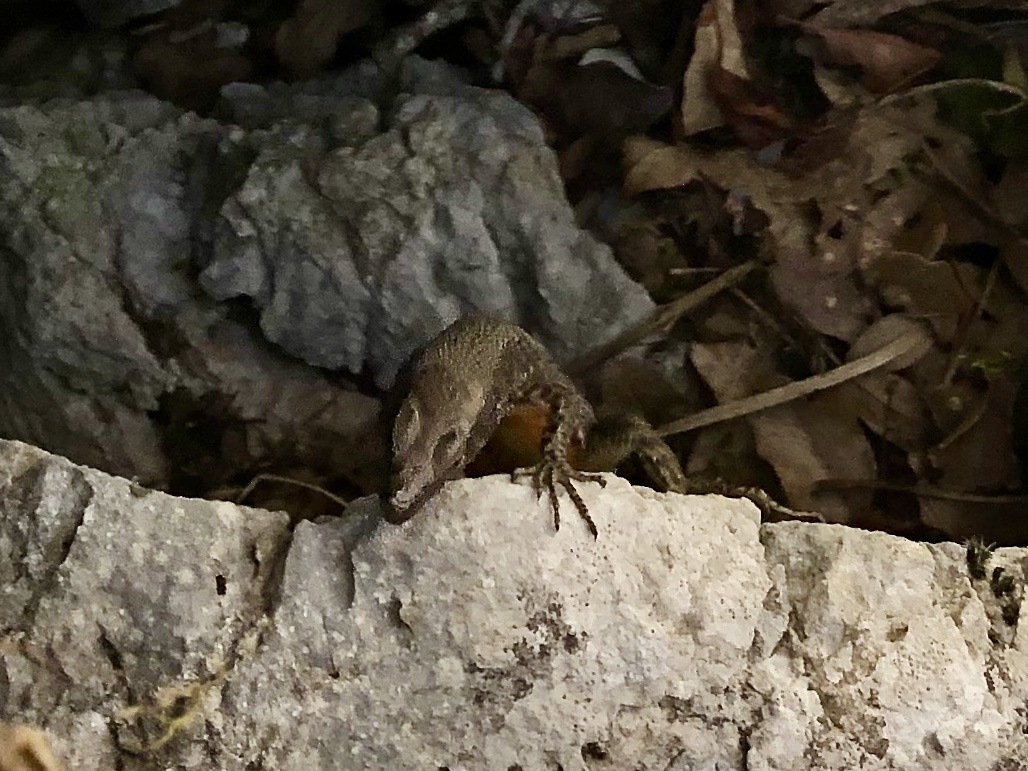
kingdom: Animalia
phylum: Chordata
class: Squamata
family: Lacertidae
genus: Algyroides
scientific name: Algyroides nigropunctatus
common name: Blue-throated keeled lizard
